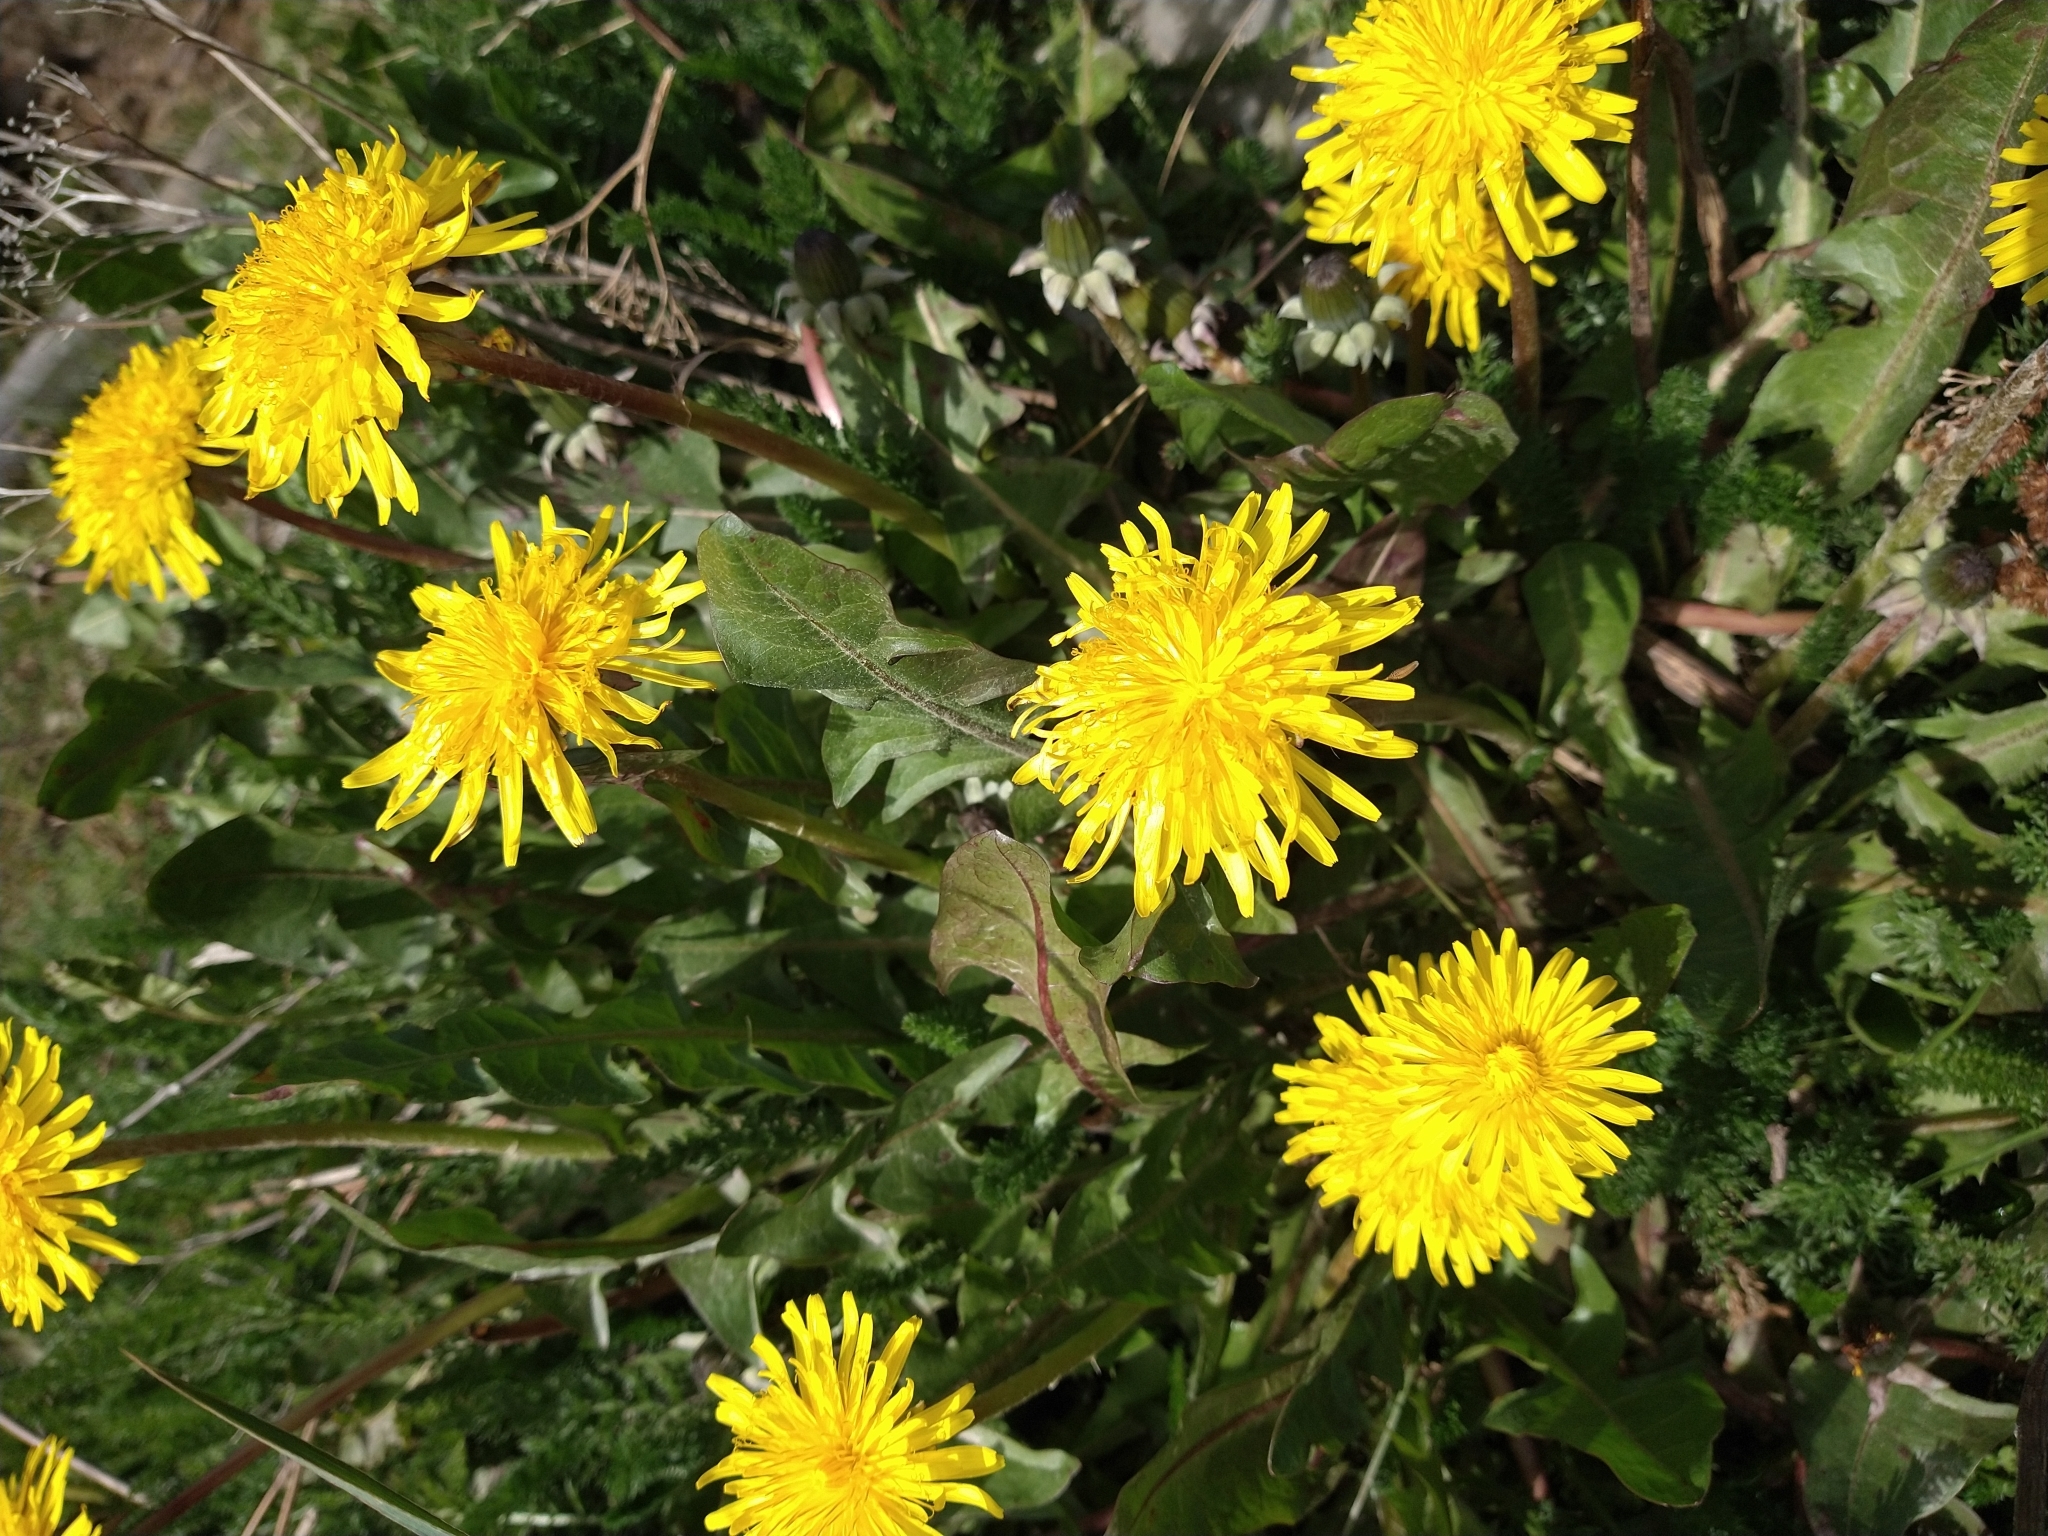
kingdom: Plantae
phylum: Tracheophyta
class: Magnoliopsida
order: Asterales
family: Asteraceae
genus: Taraxacum
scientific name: Taraxacum officinale
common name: Common dandelion
